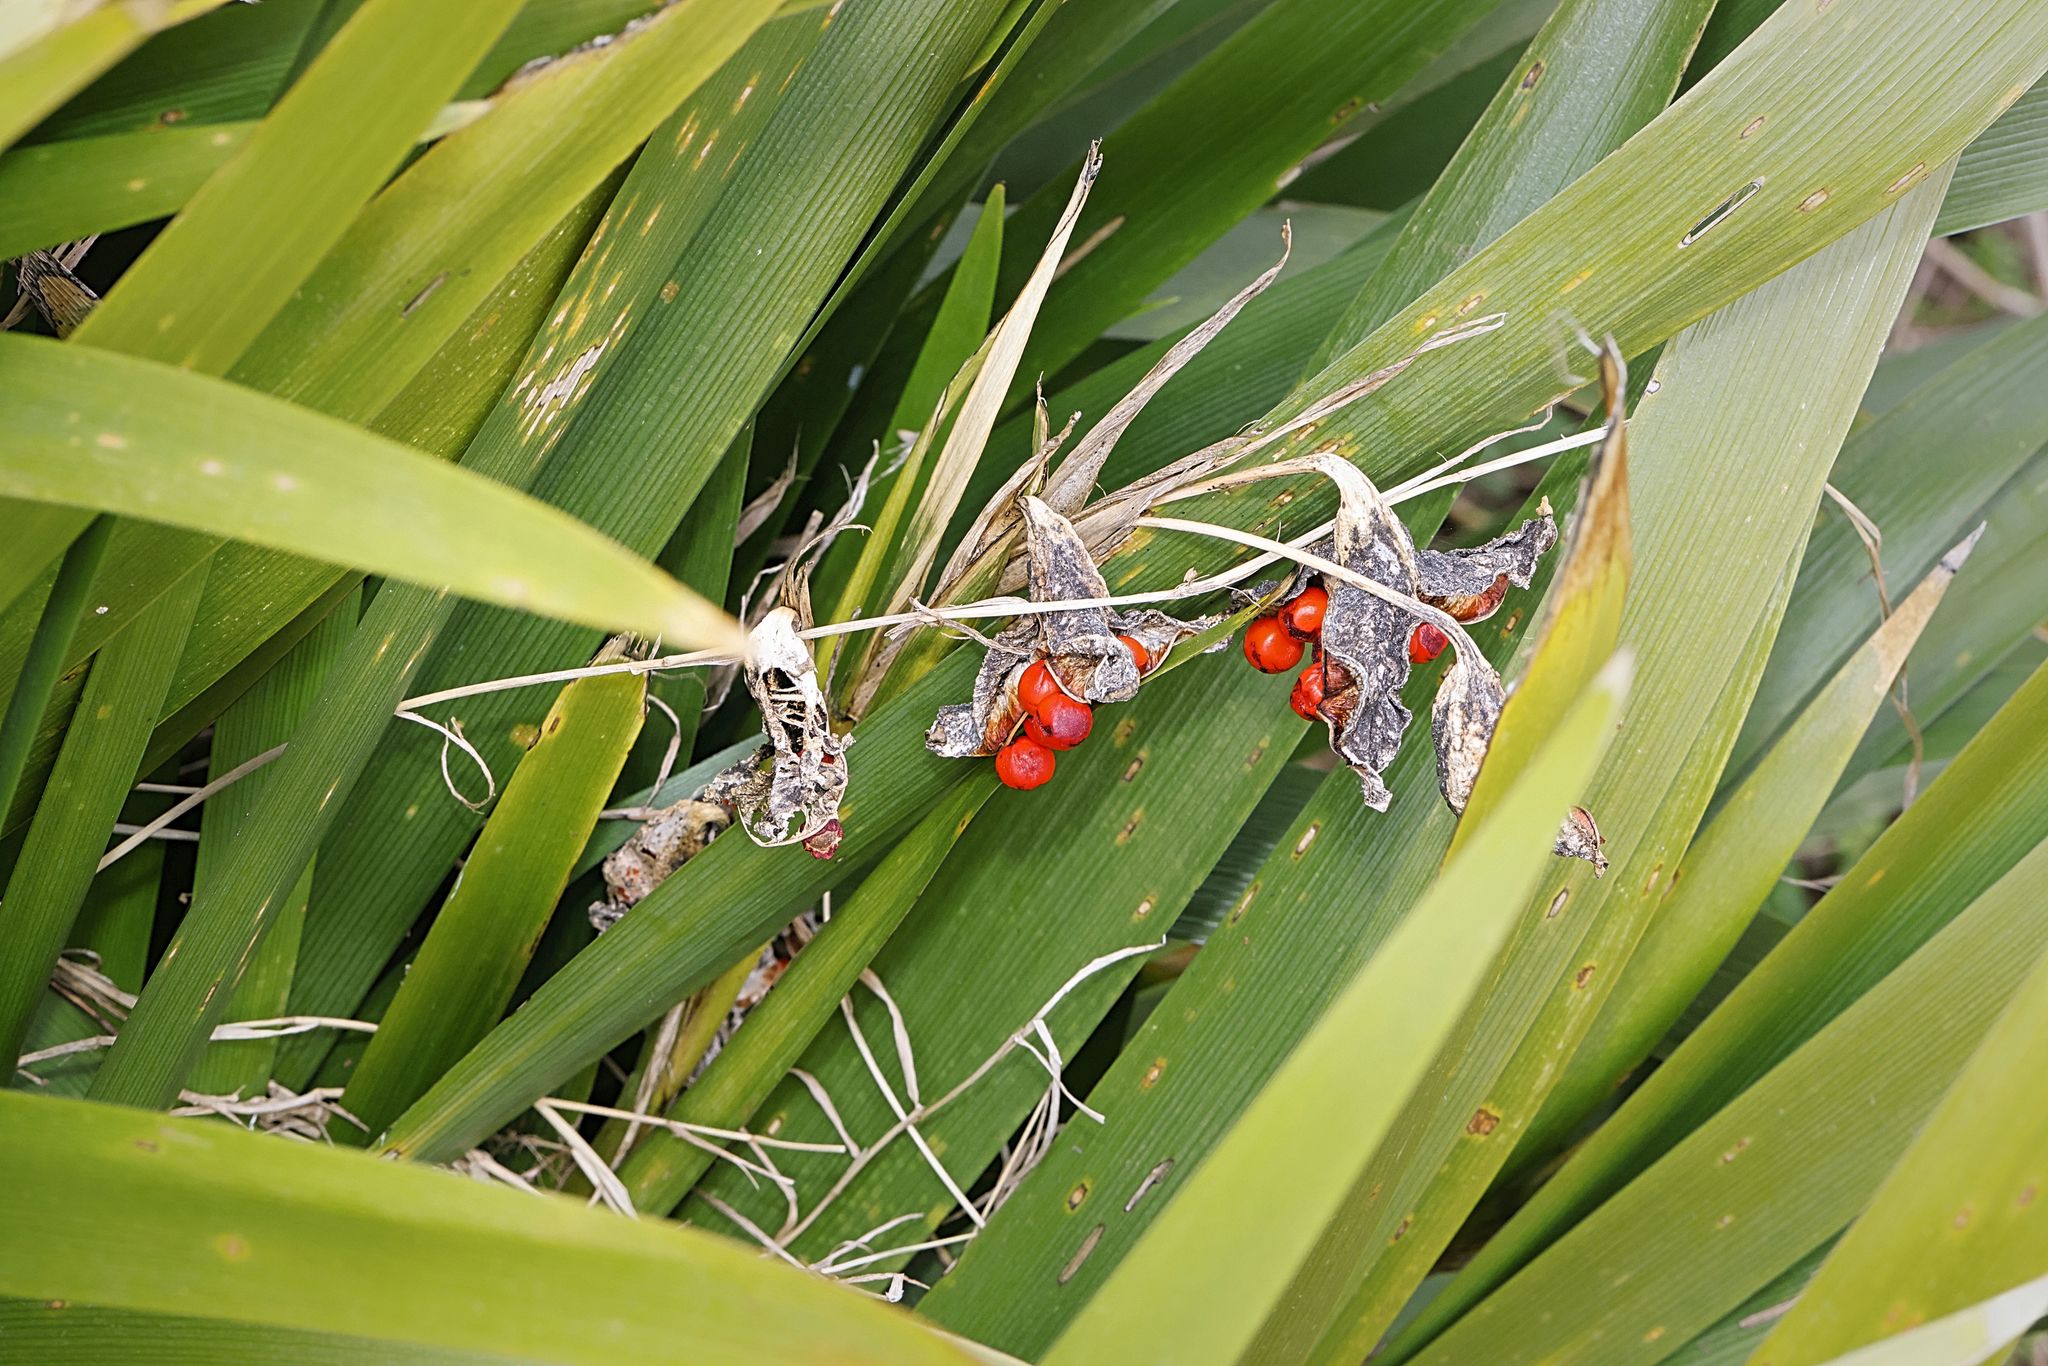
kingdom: Plantae
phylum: Tracheophyta
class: Liliopsida
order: Asparagales
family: Iridaceae
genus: Iris
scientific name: Iris foetidissima
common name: Stinking iris
